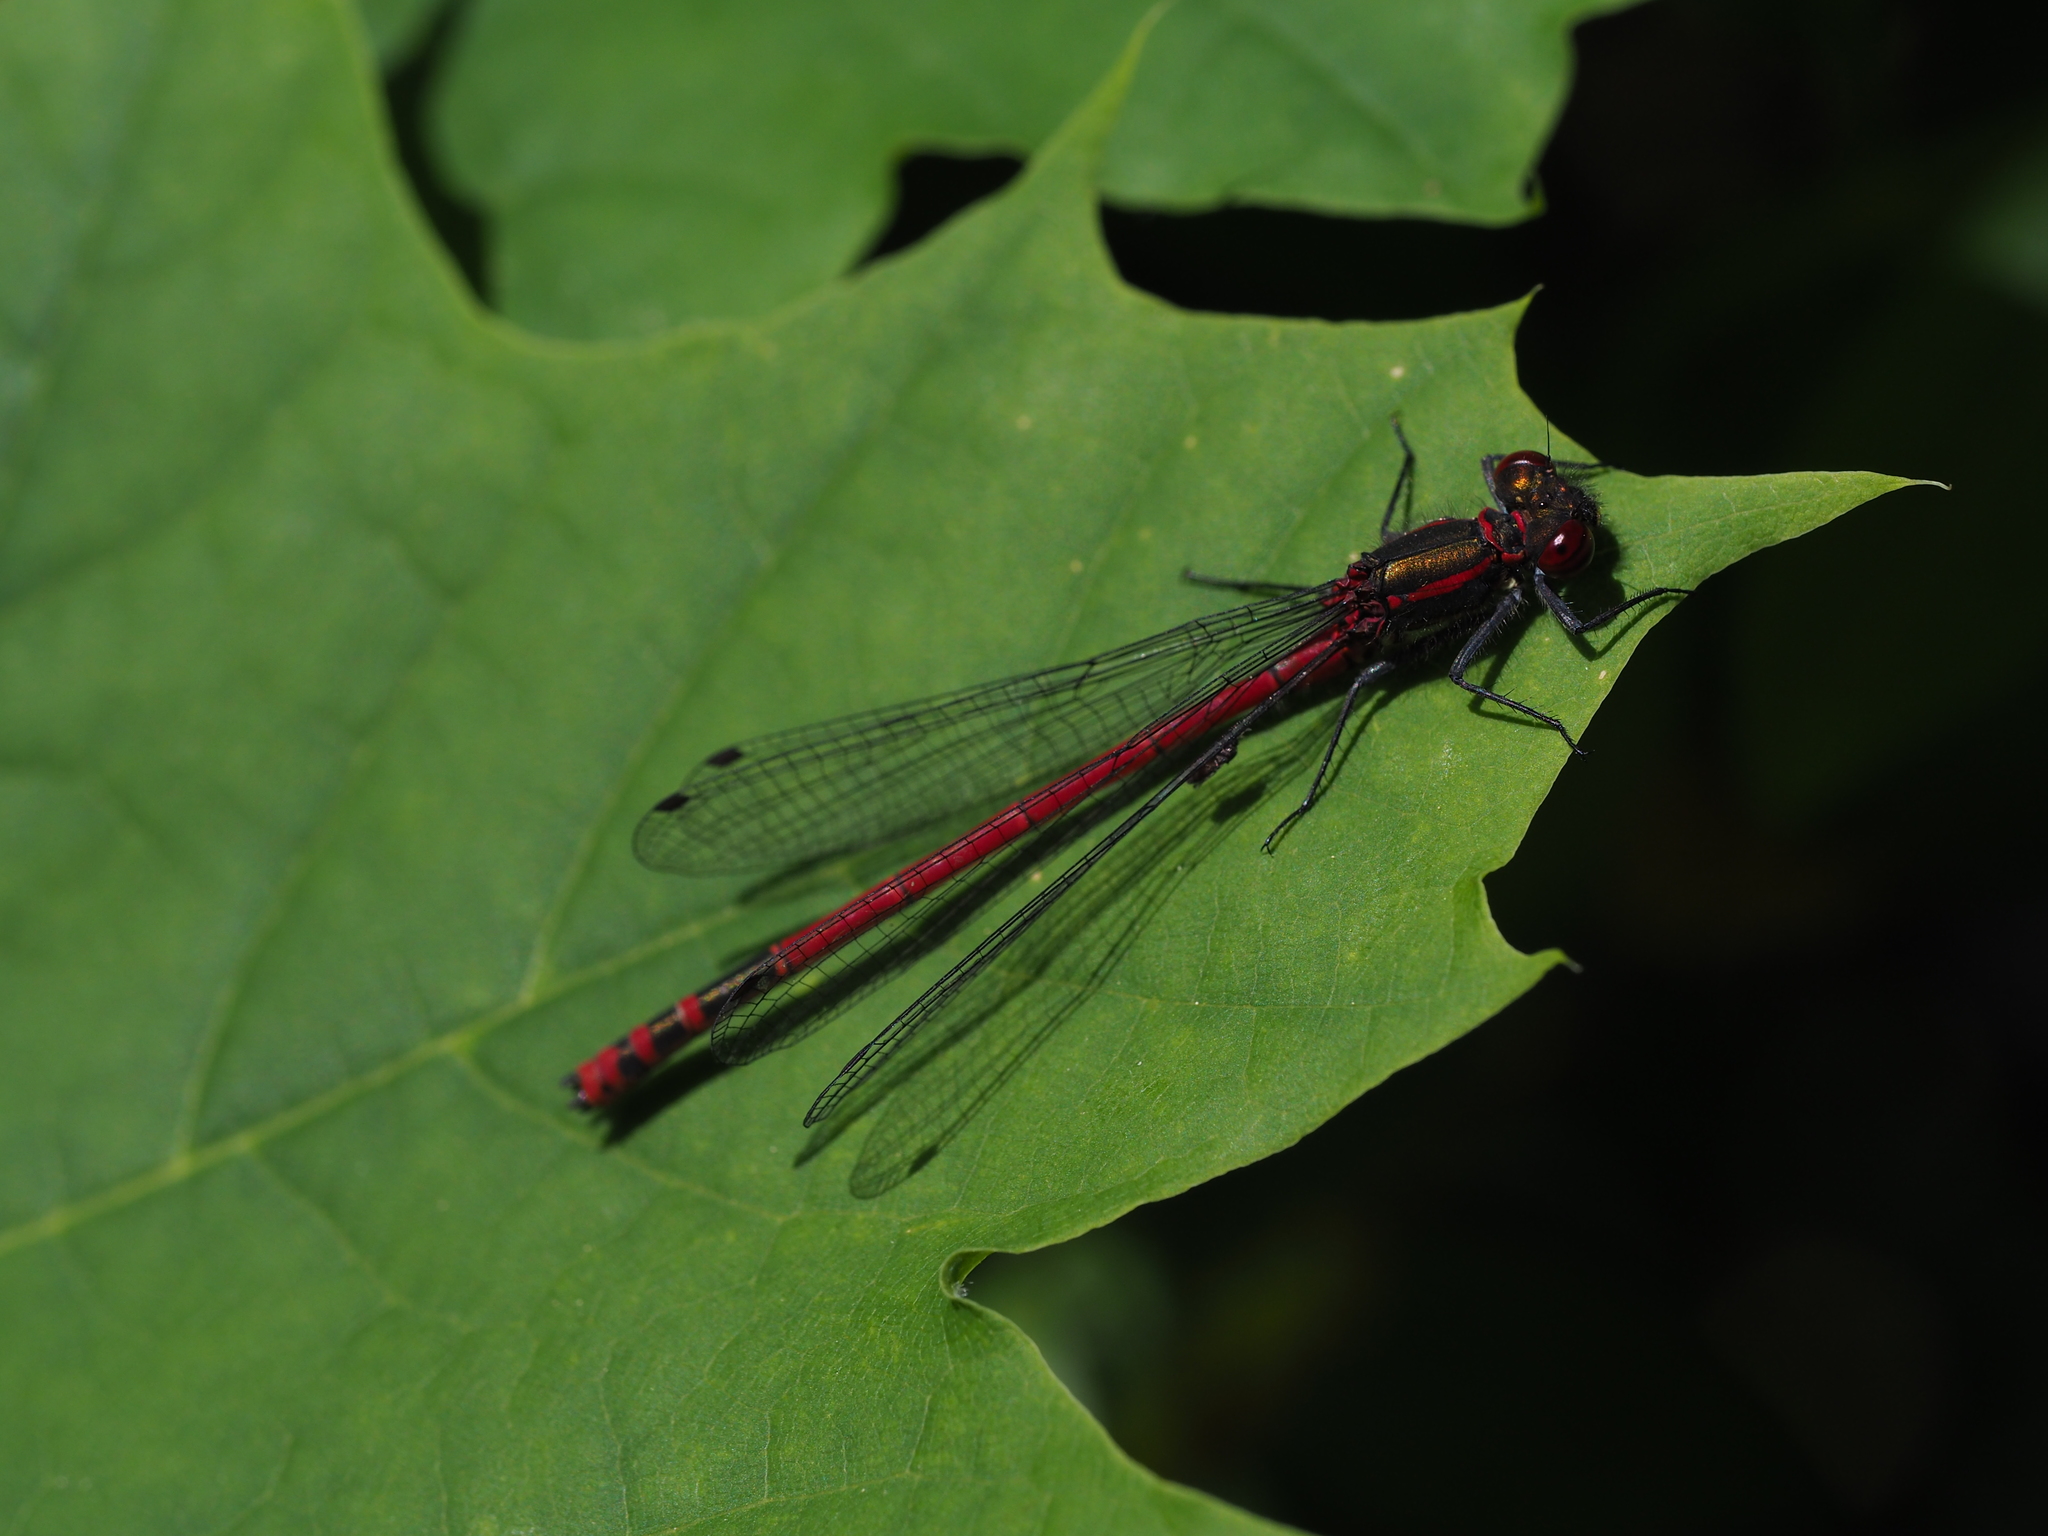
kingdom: Animalia
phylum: Arthropoda
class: Insecta
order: Odonata
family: Coenagrionidae
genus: Pyrrhosoma
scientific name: Pyrrhosoma nymphula
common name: Large red damsel
